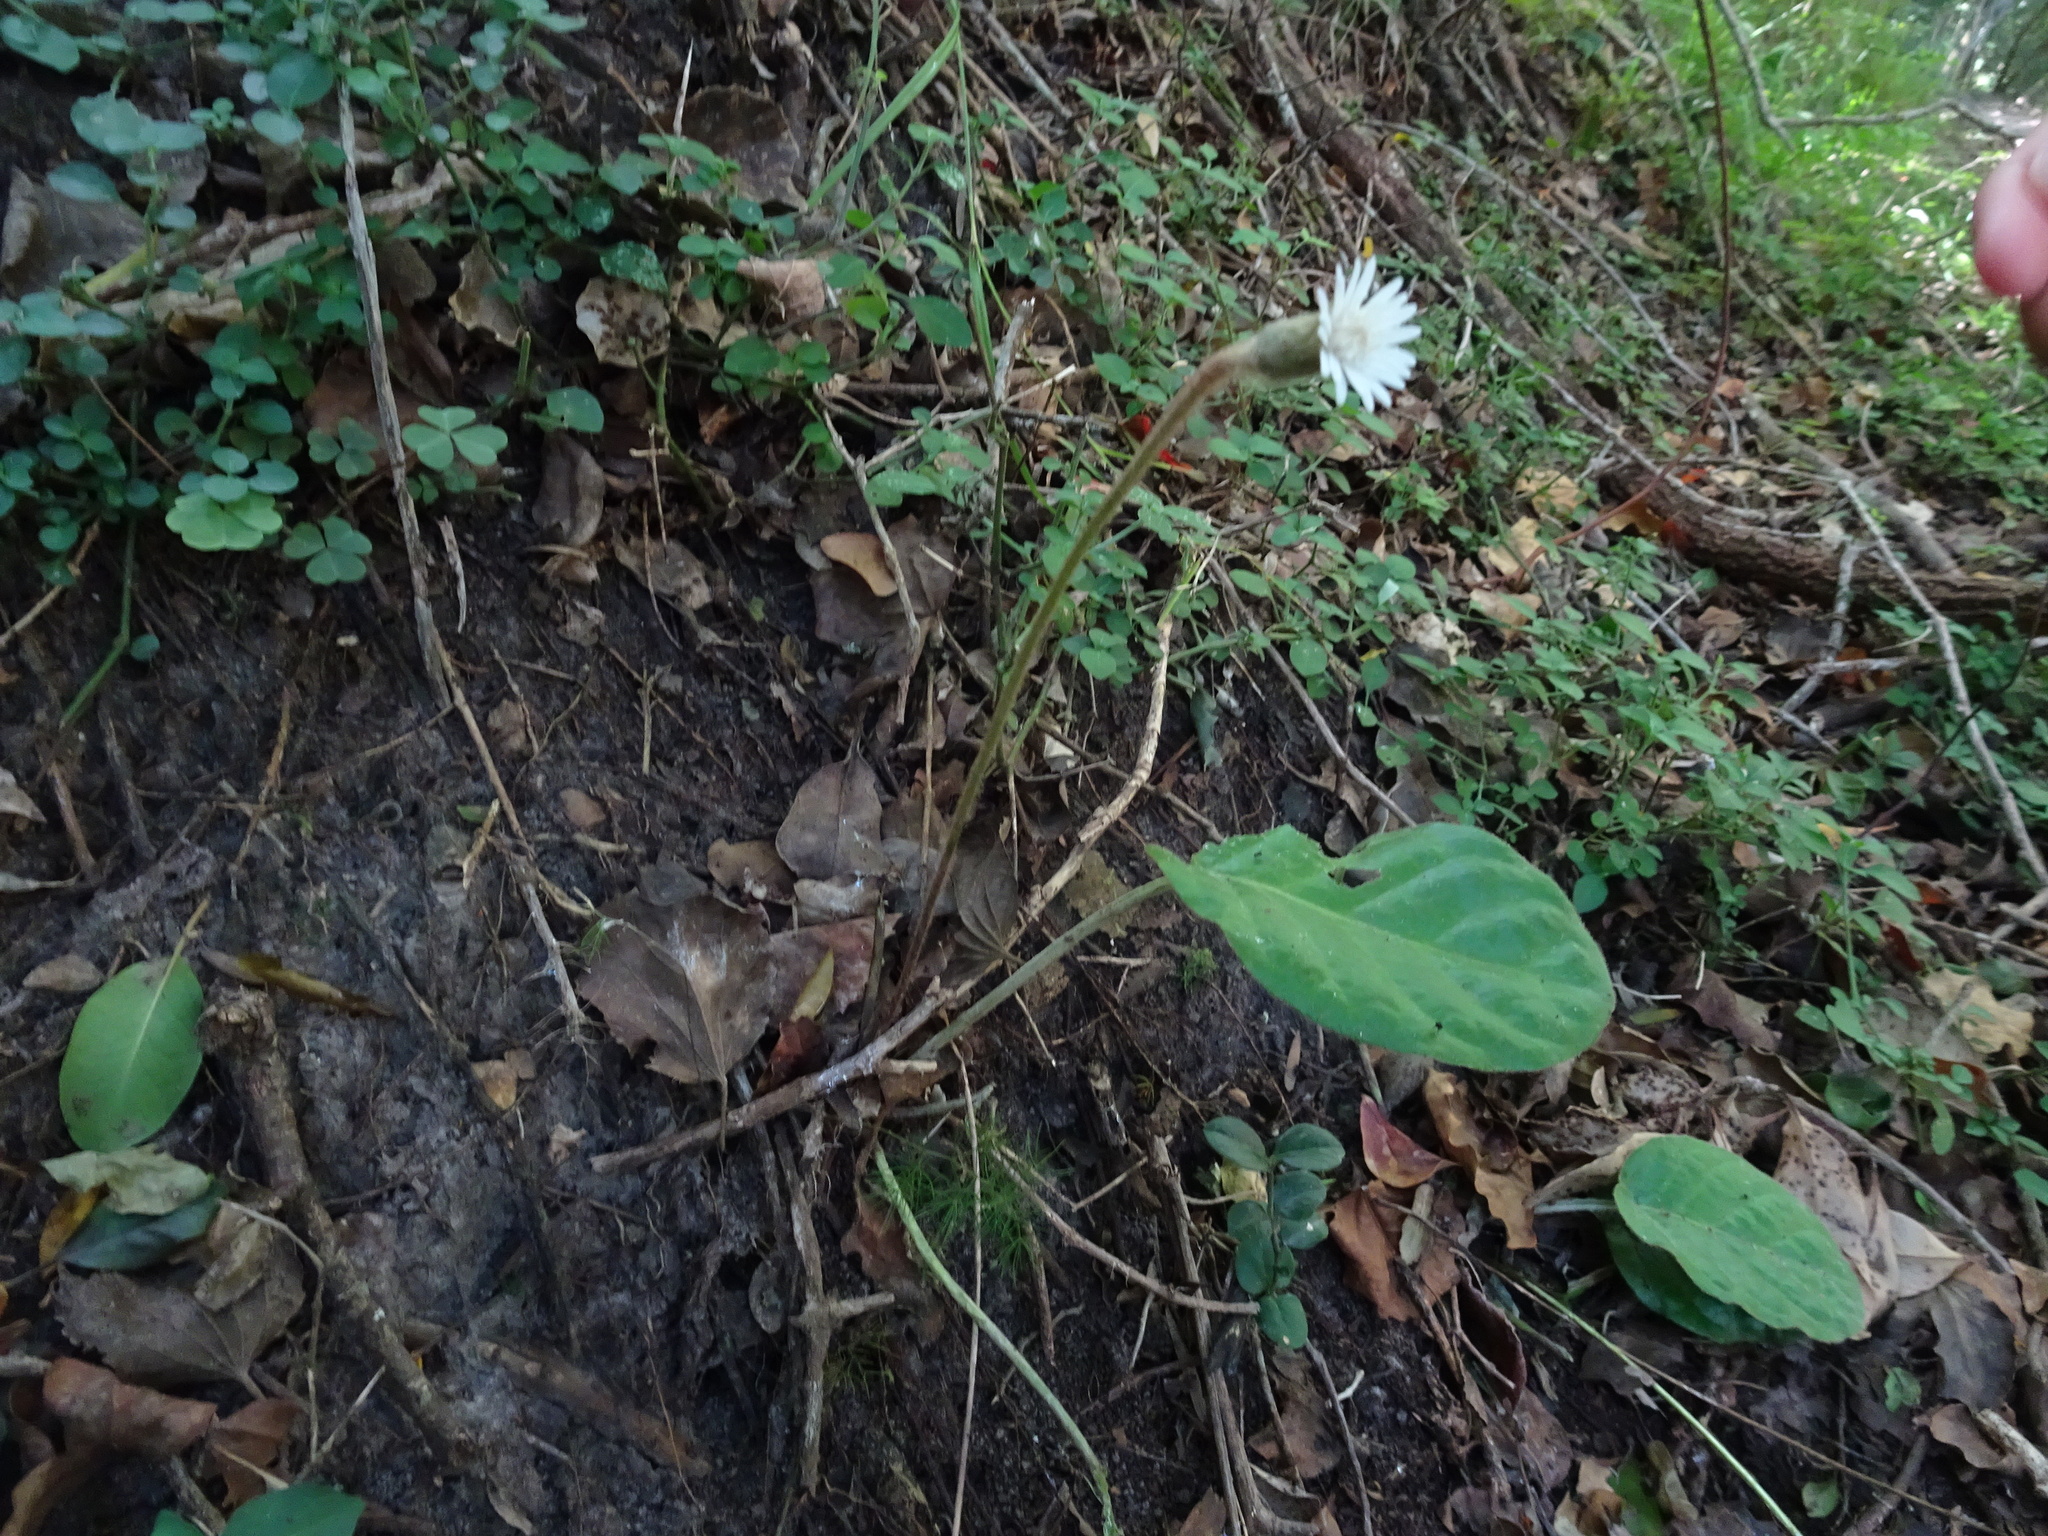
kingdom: Plantae
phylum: Tracheophyta
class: Magnoliopsida
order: Asterales
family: Asteraceae
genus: Piloselloides
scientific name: Piloselloides cordata
